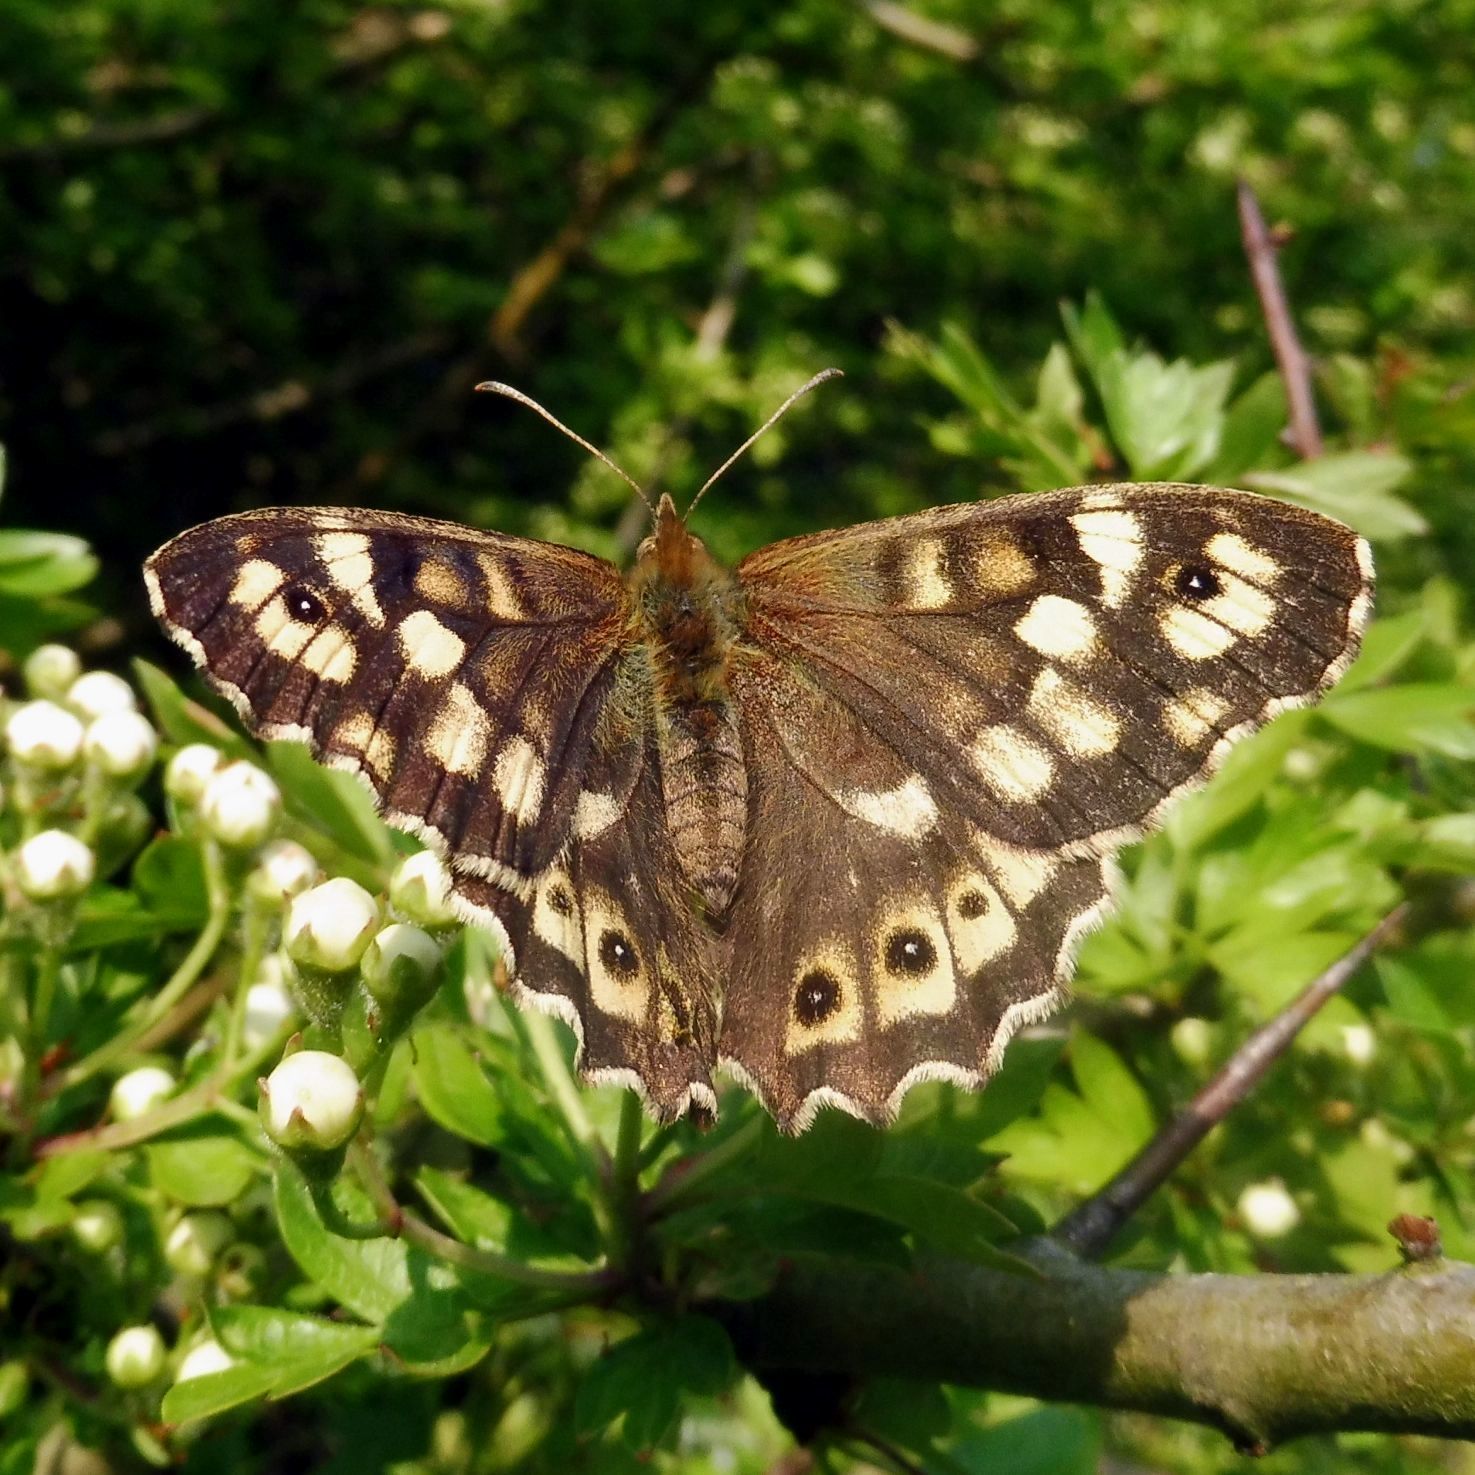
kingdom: Animalia
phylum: Arthropoda
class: Insecta
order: Lepidoptera
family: Nymphalidae
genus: Pararge
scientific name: Pararge aegeria
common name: Speckled wood
